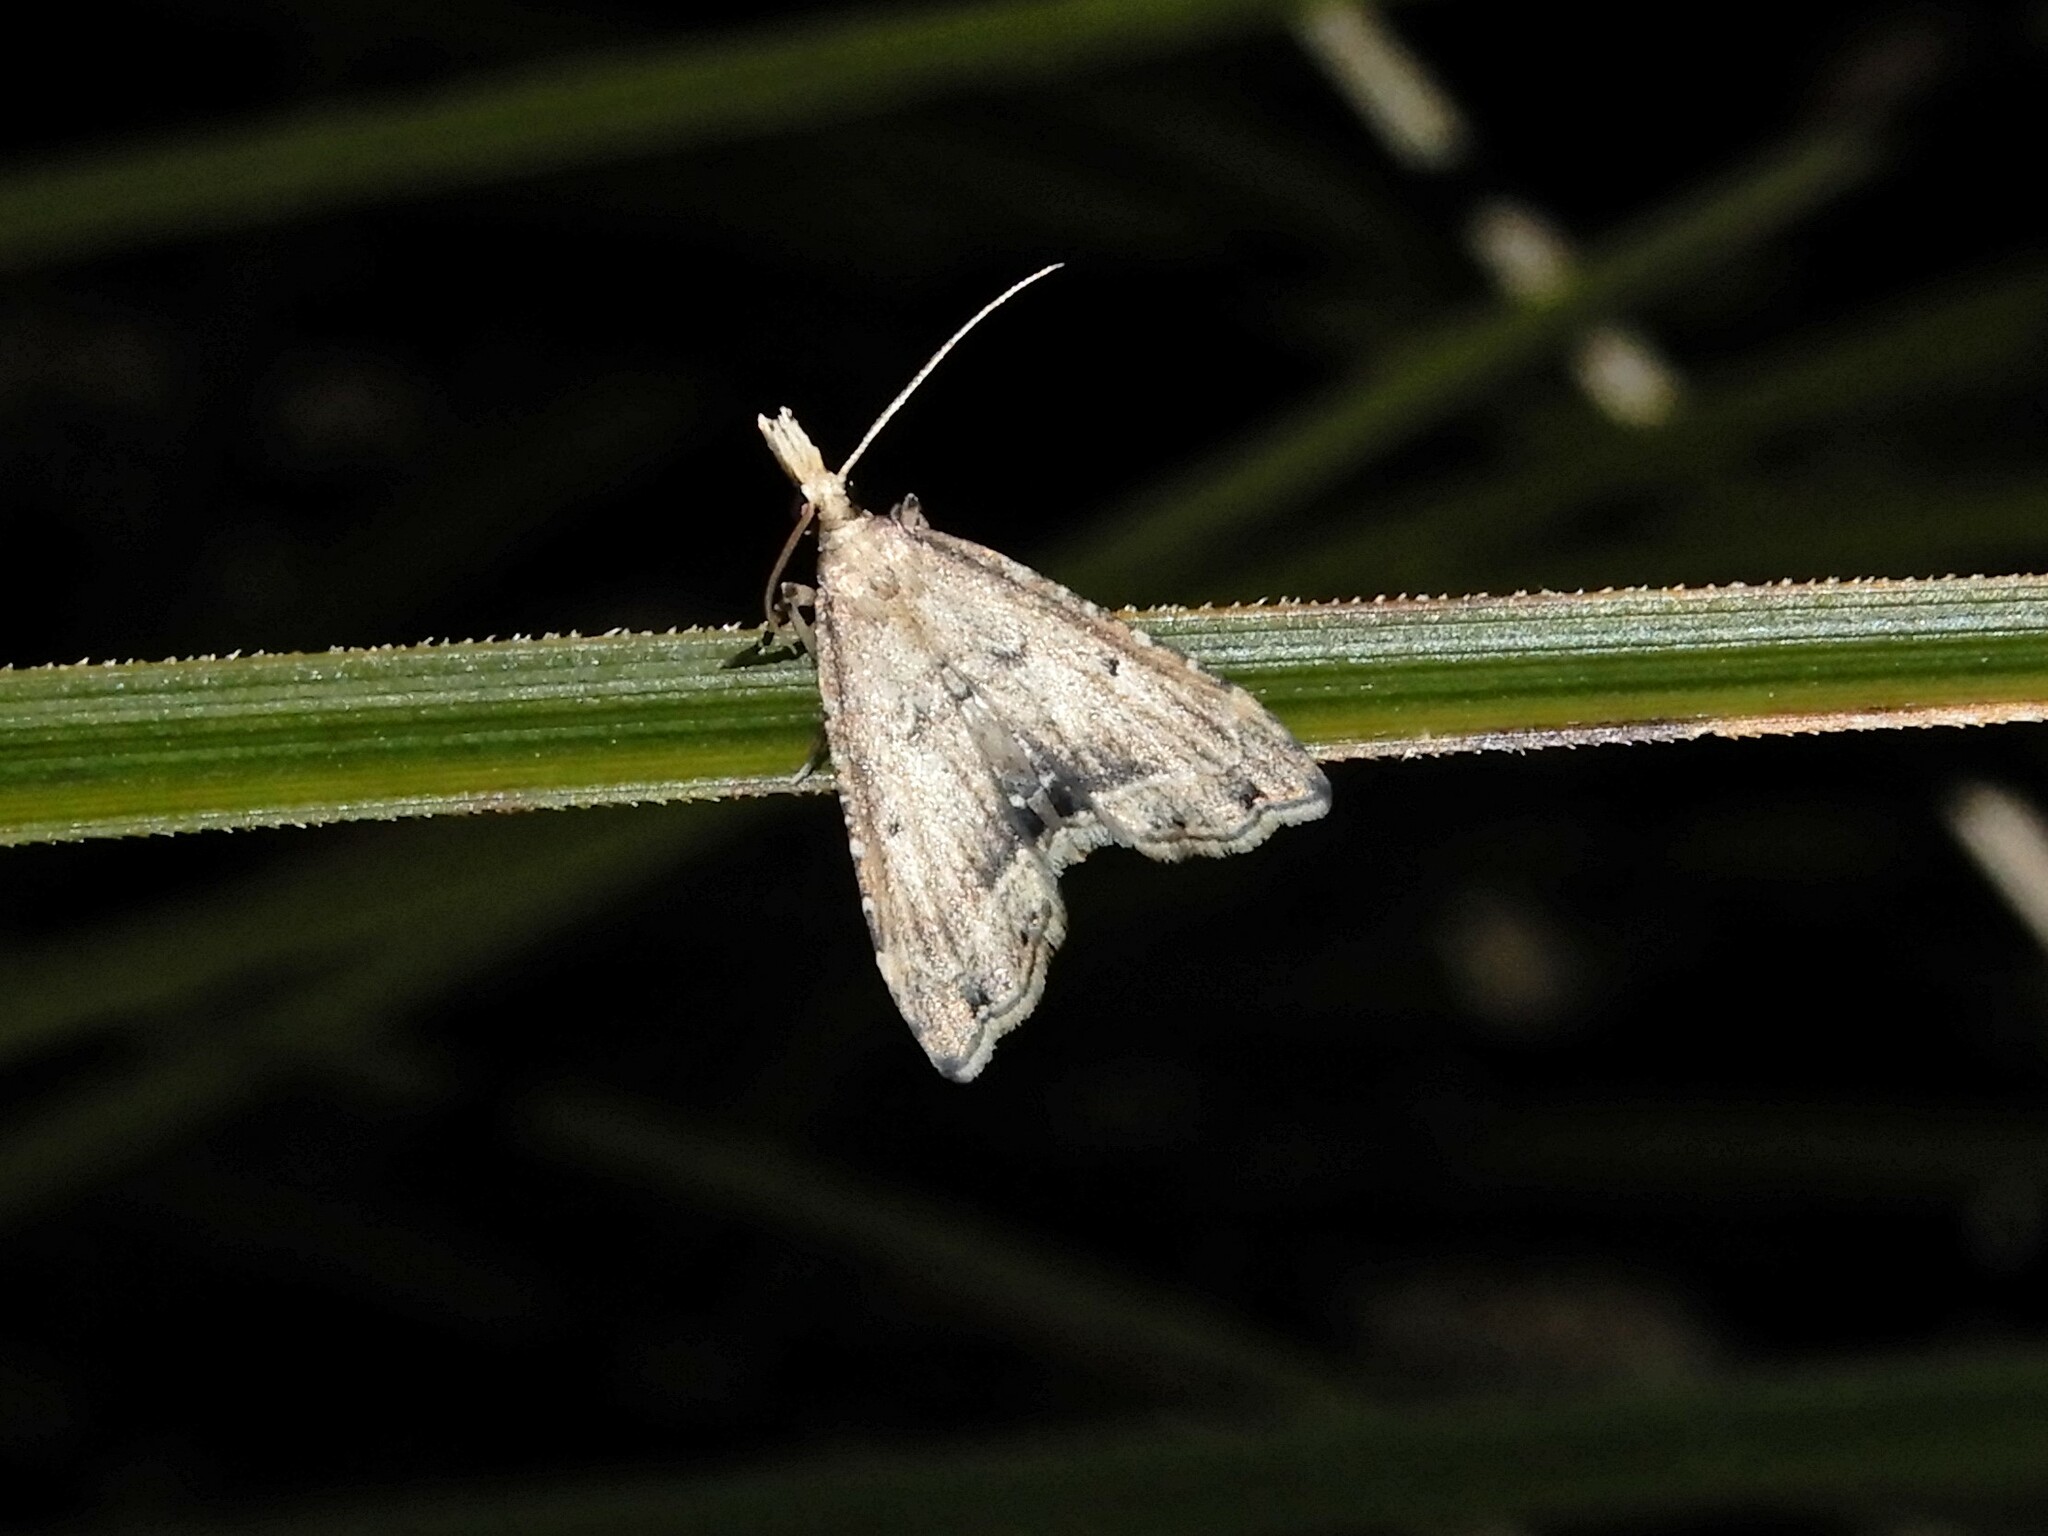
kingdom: Animalia
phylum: Arthropoda
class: Insecta
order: Lepidoptera
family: Crambidae
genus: Diplopseustis
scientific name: Diplopseustis perieresalis
